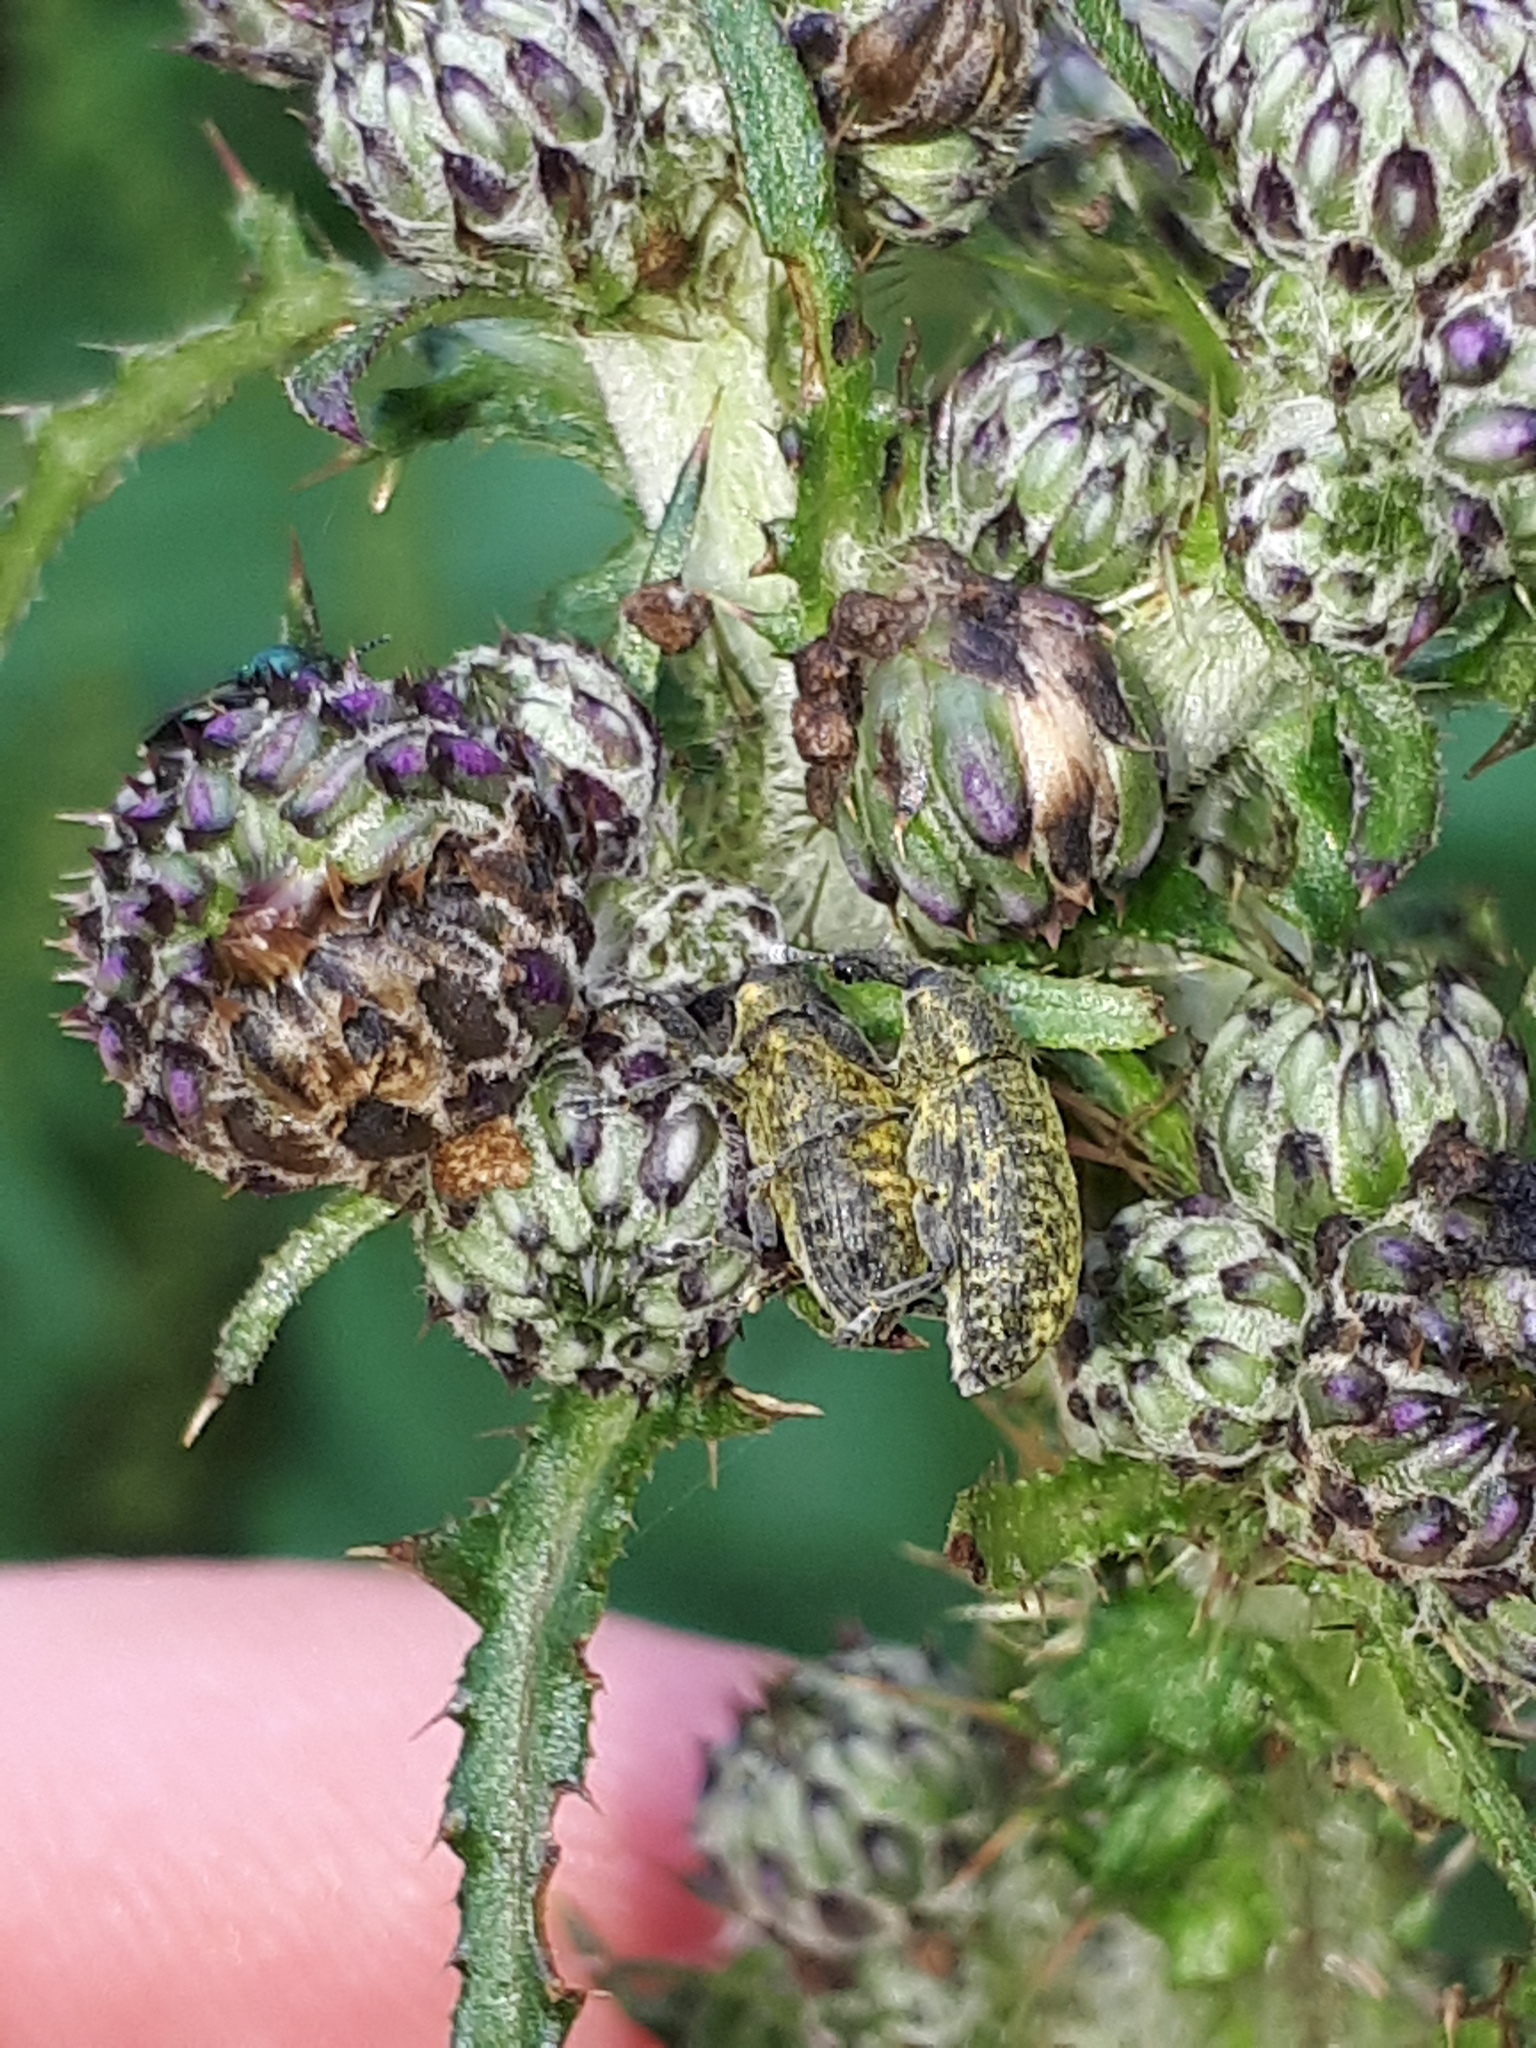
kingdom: Animalia
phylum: Arthropoda
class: Insecta
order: Coleoptera
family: Curculionidae
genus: Larinus
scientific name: Larinus carlinae
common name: Weevil
